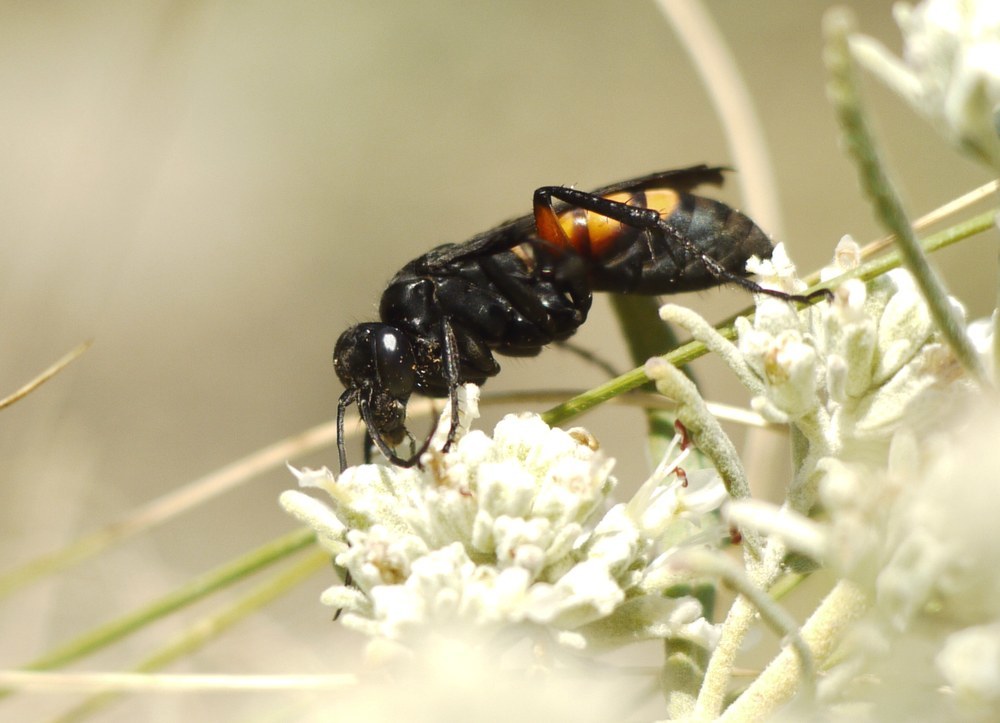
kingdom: Animalia
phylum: Arthropoda
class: Insecta
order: Hymenoptera
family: Pompilidae
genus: Anoplius
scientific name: Anoplius viaticus
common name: Black banded spider wasp
